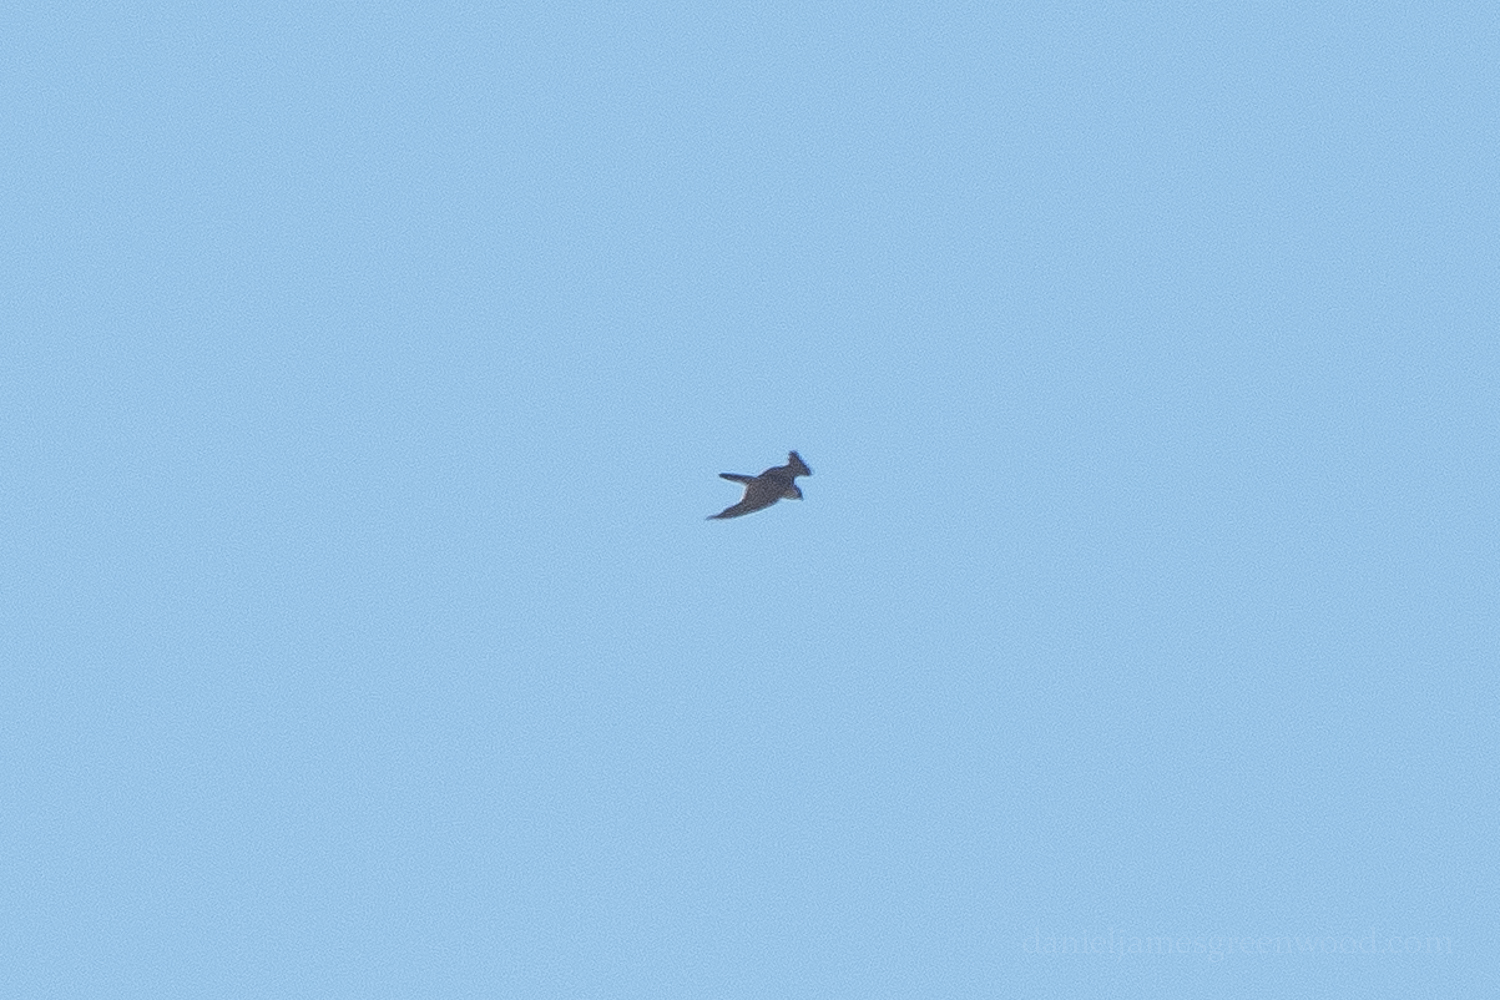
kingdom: Animalia
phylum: Chordata
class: Aves
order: Falconiformes
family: Falconidae
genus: Falco
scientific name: Falco peregrinus
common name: Peregrine falcon
